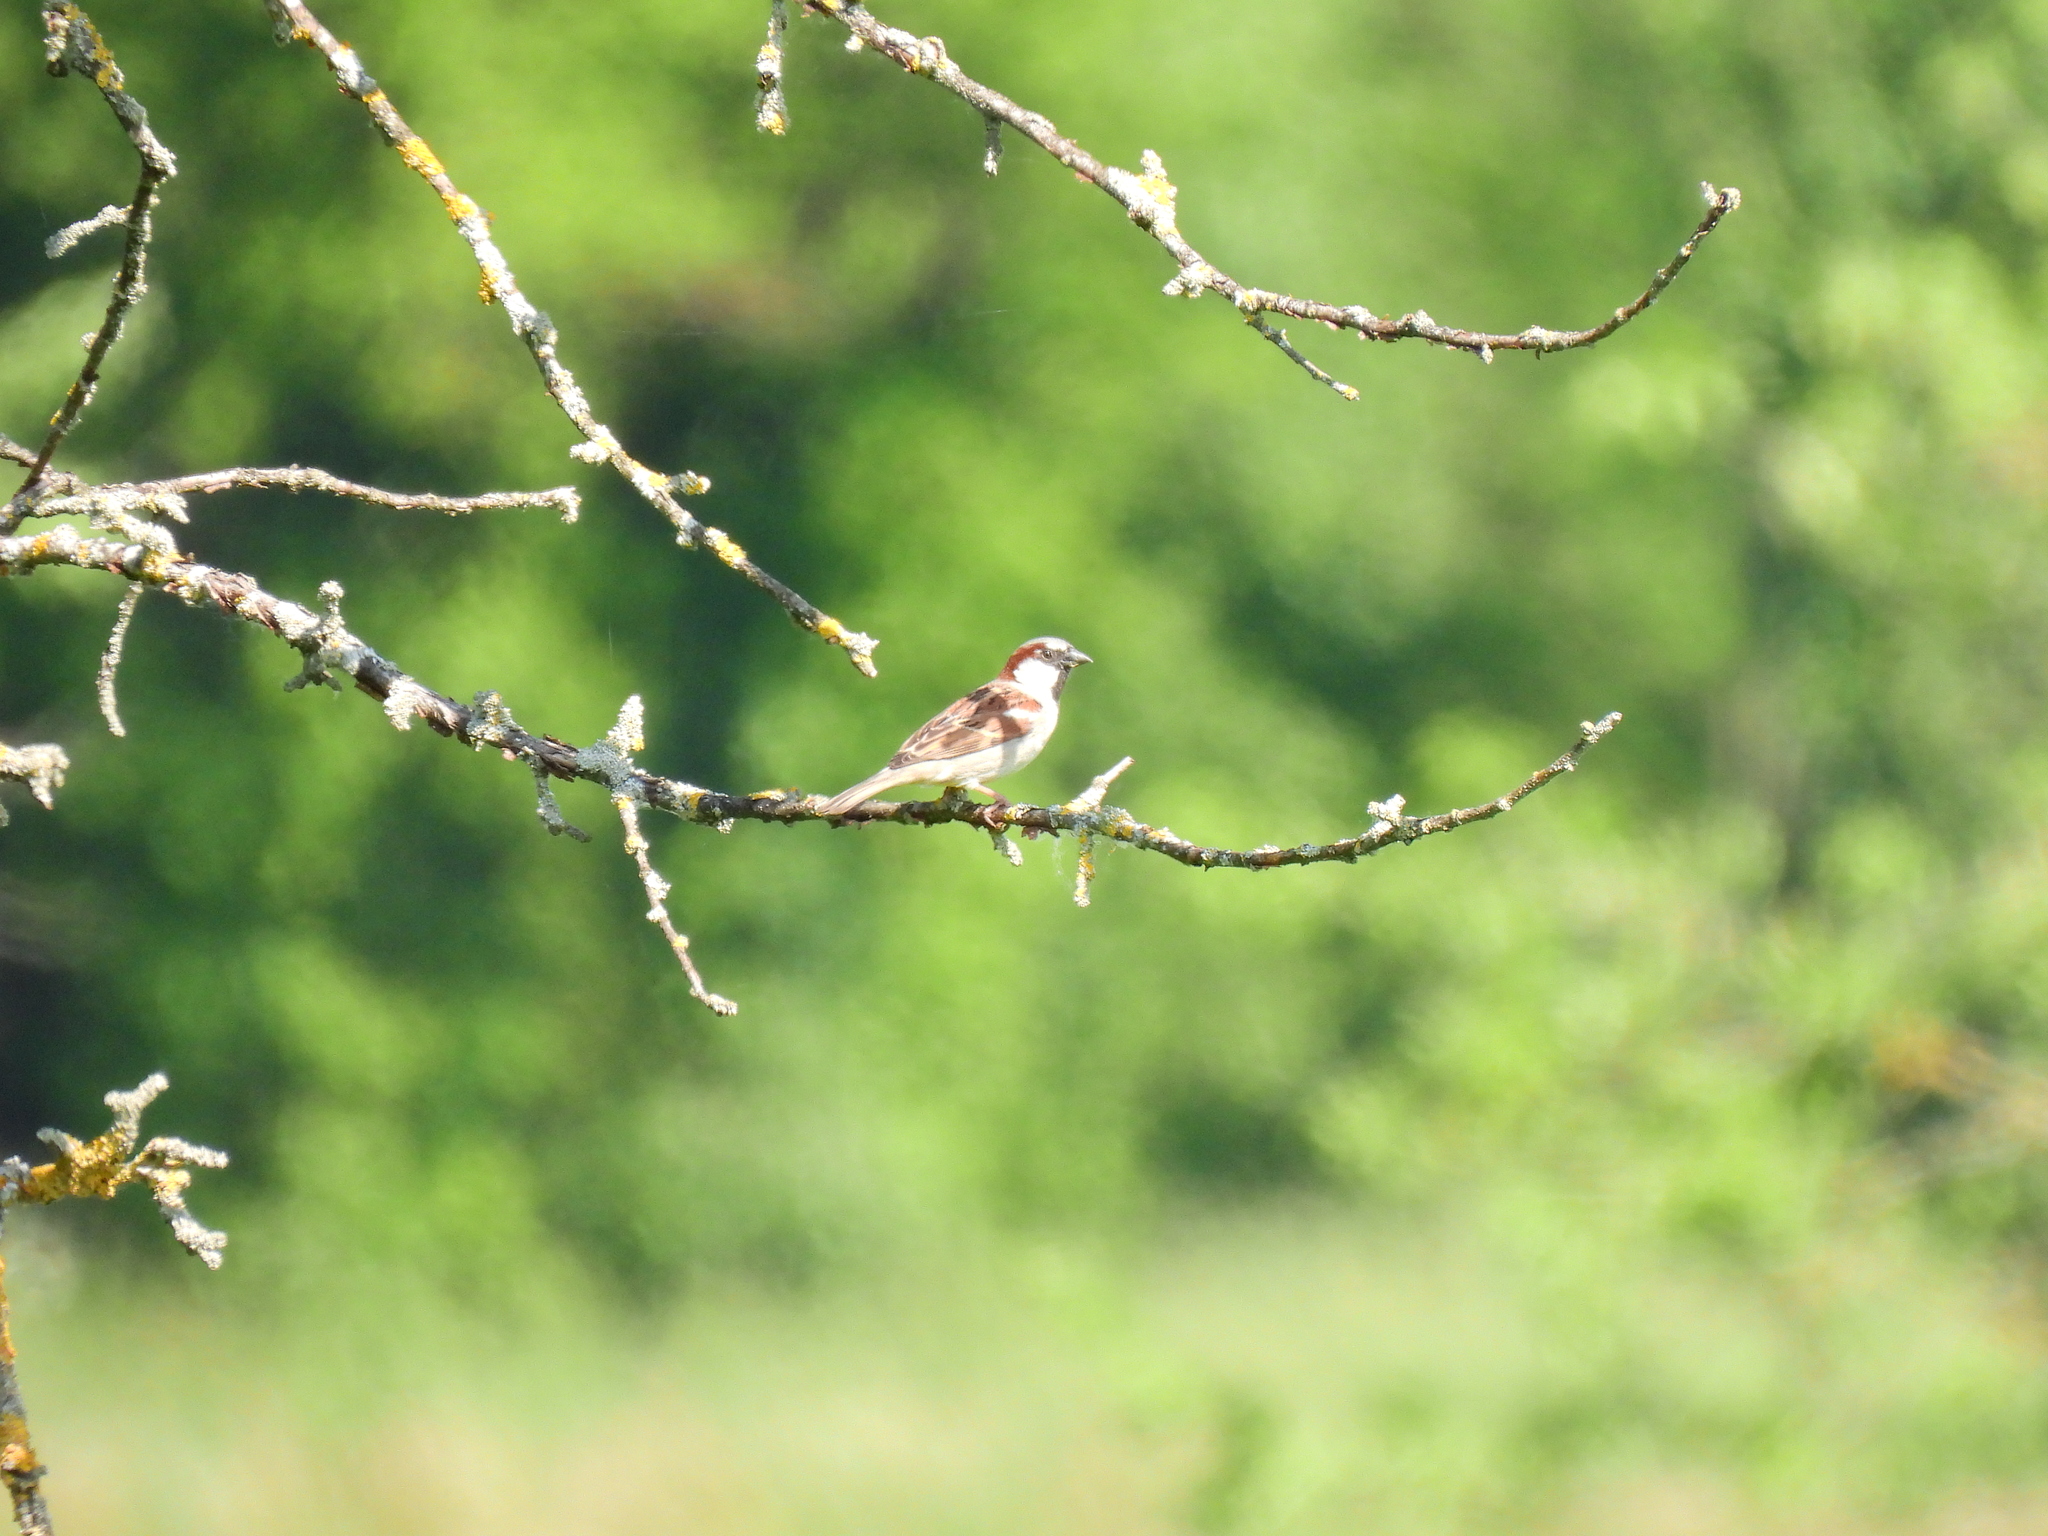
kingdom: Animalia
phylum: Chordata
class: Aves
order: Passeriformes
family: Passeridae
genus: Passer
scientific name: Passer domesticus
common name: House sparrow
